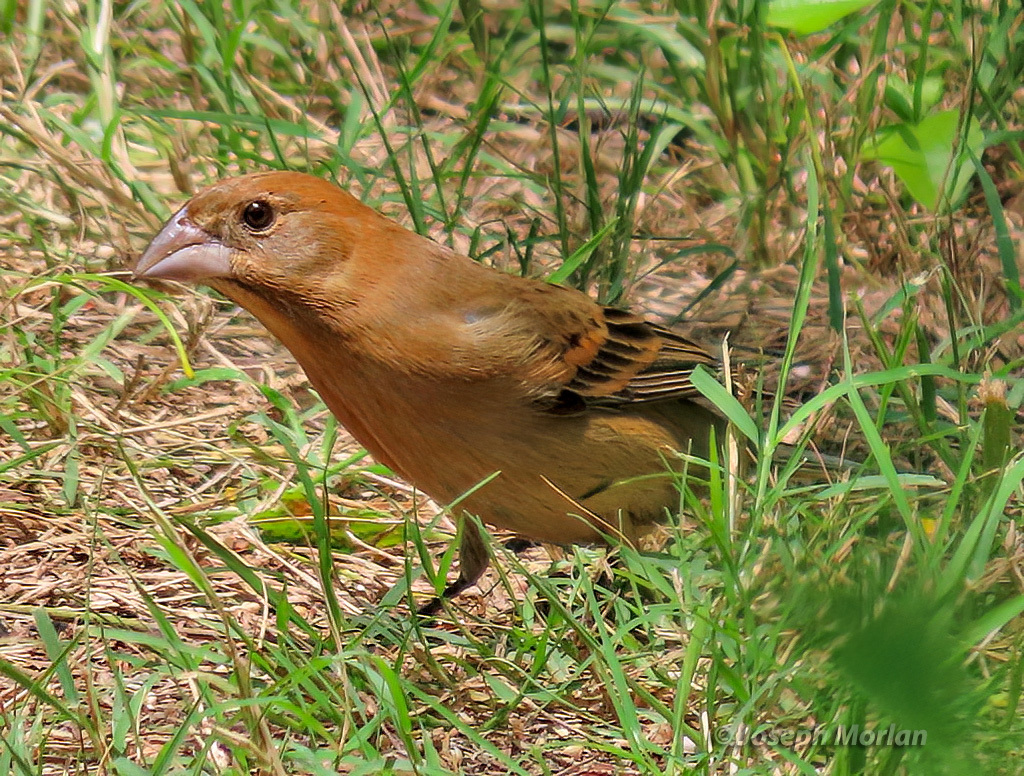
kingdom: Animalia
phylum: Chordata
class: Aves
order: Passeriformes
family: Cardinalidae
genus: Passerina
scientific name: Passerina caerulea
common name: Blue grosbeak
